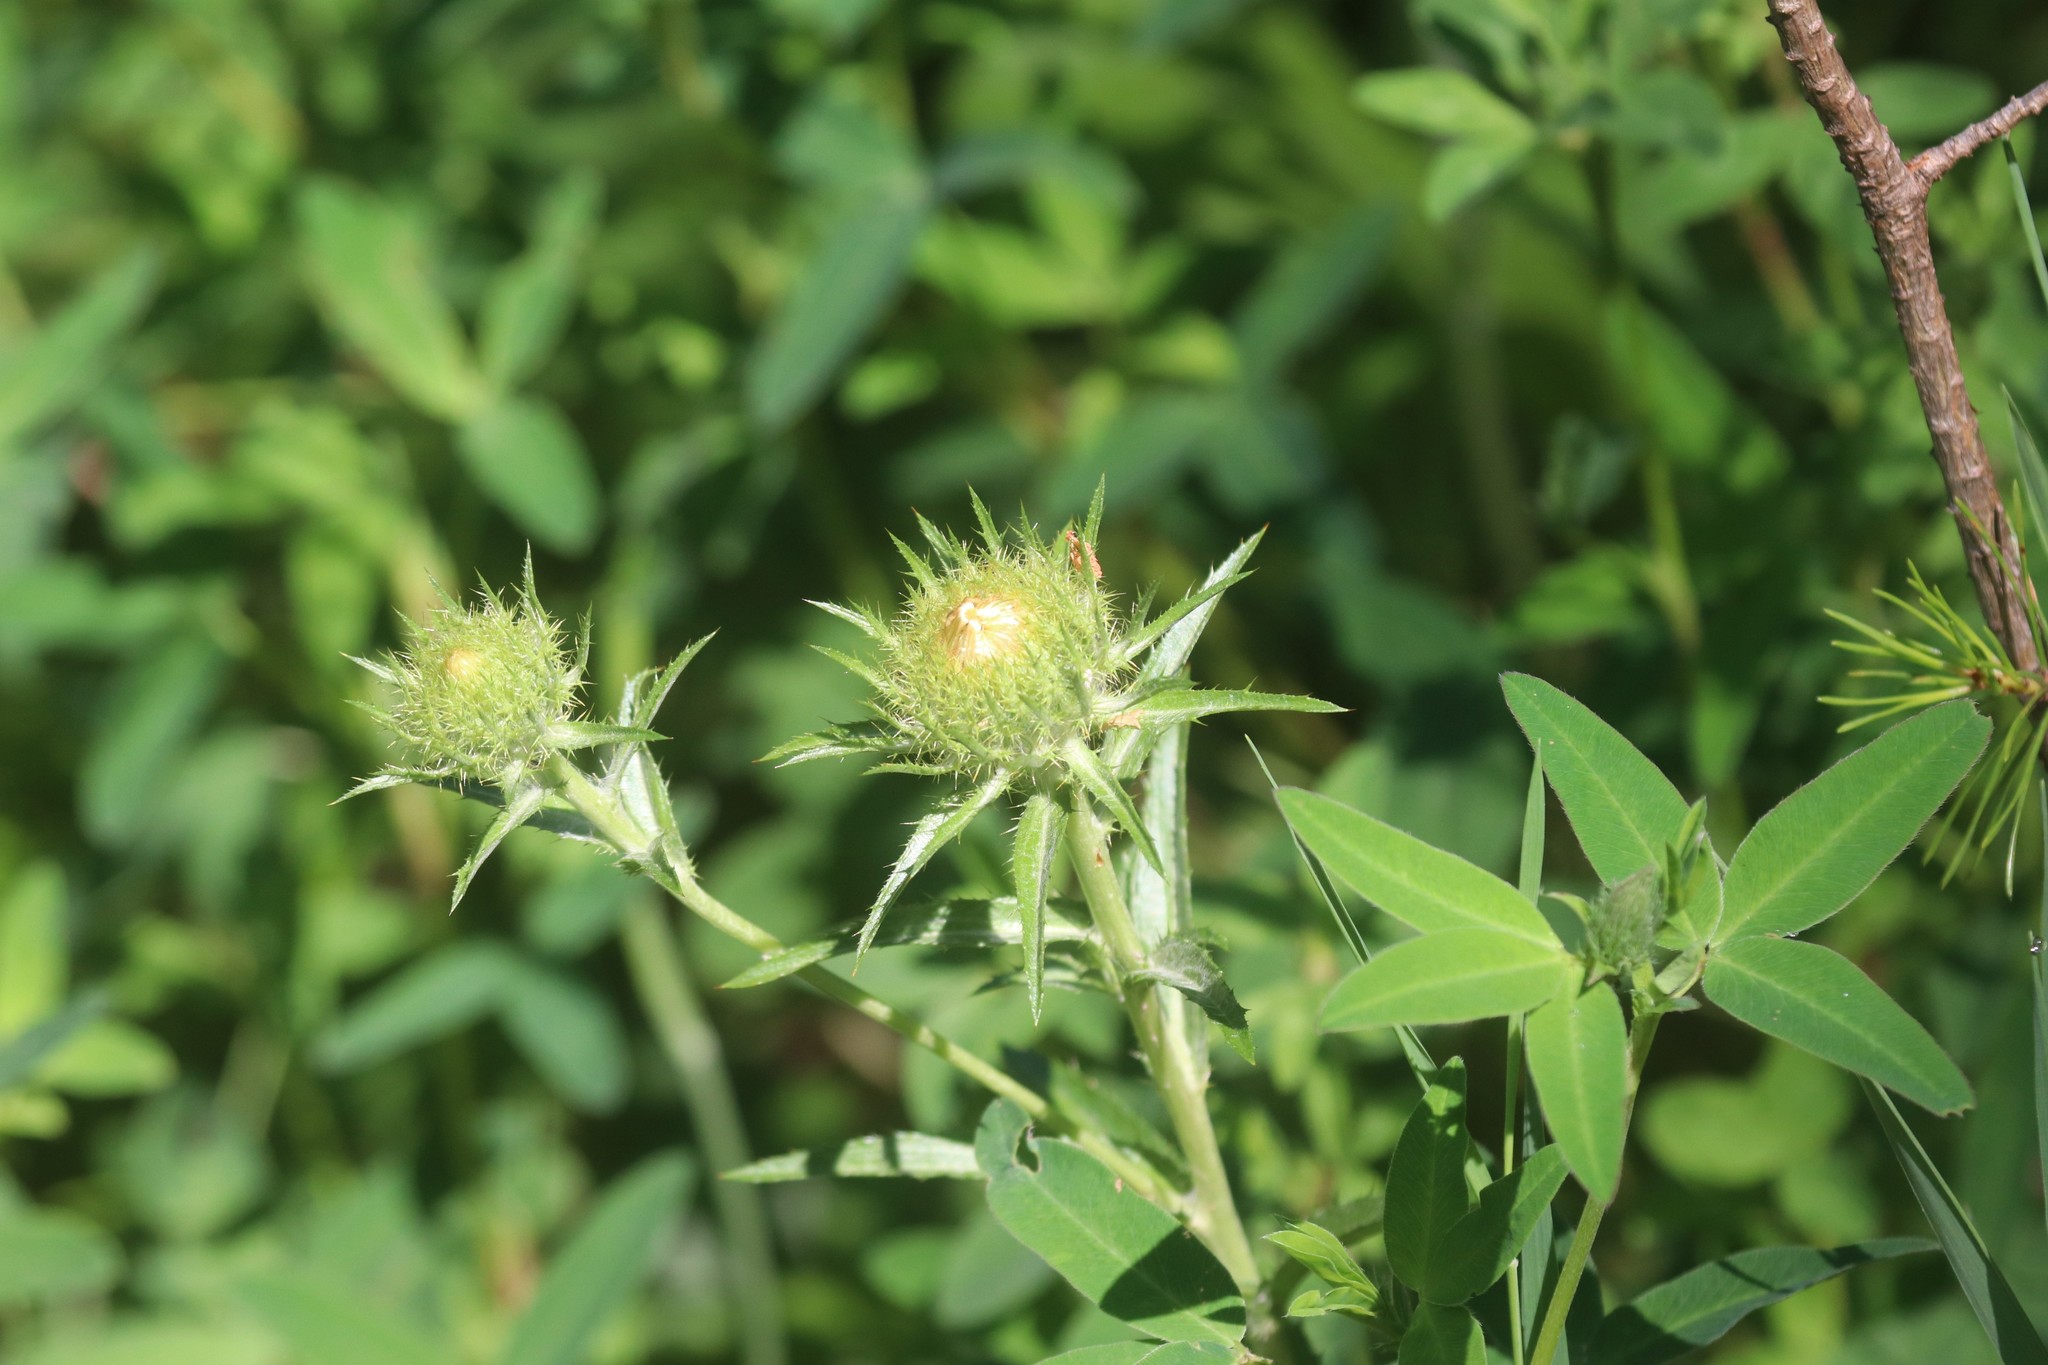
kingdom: Plantae
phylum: Tracheophyta
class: Magnoliopsida
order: Asterales
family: Asteraceae
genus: Carlina
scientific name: Carlina biebersteinii
